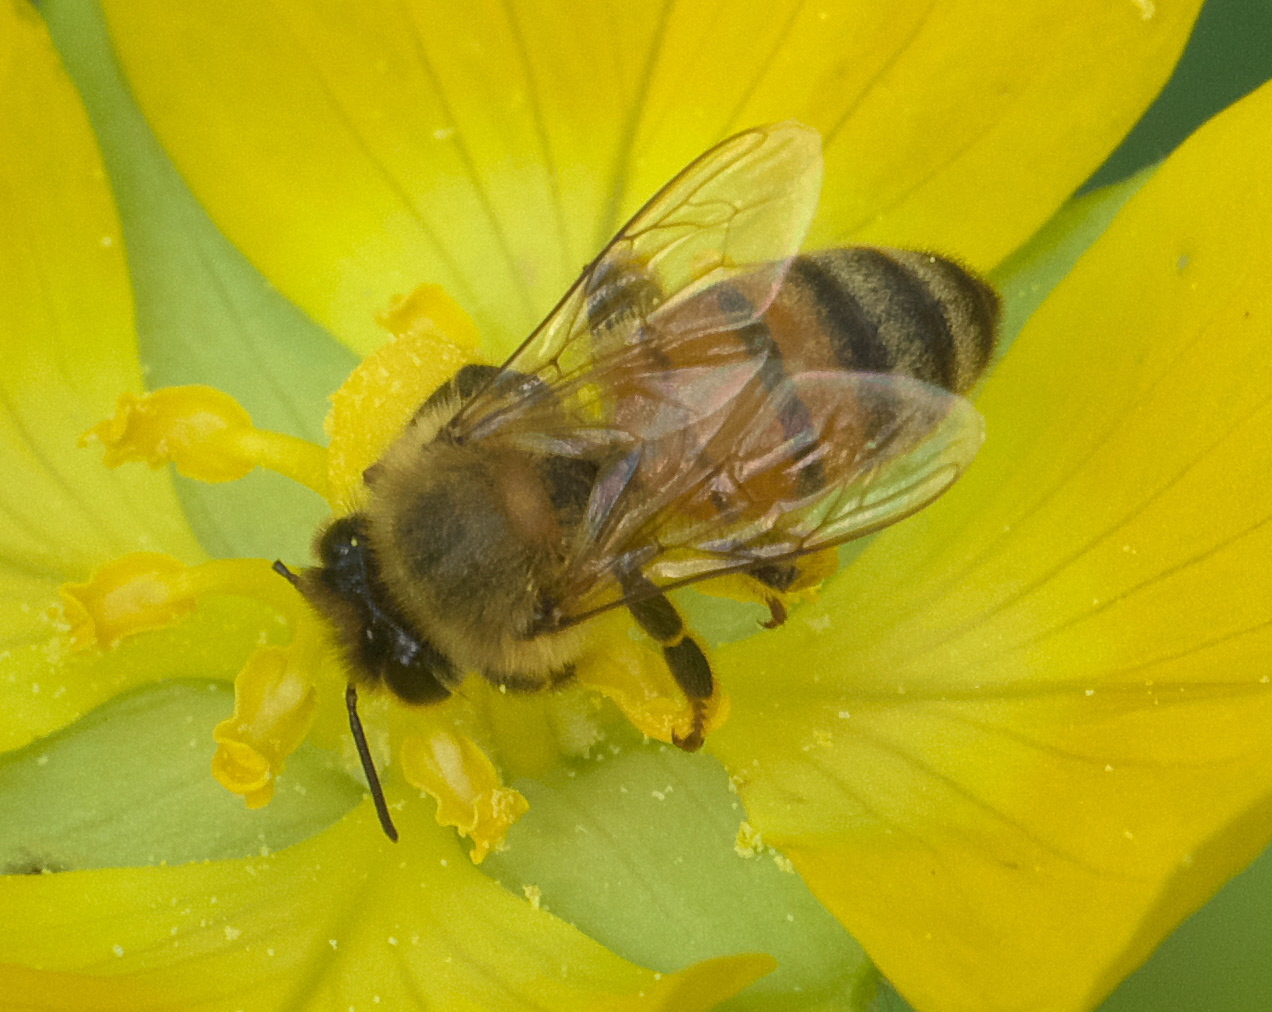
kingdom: Animalia
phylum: Arthropoda
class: Insecta
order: Hymenoptera
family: Apidae
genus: Apis
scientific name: Apis mellifera
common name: Honey bee
